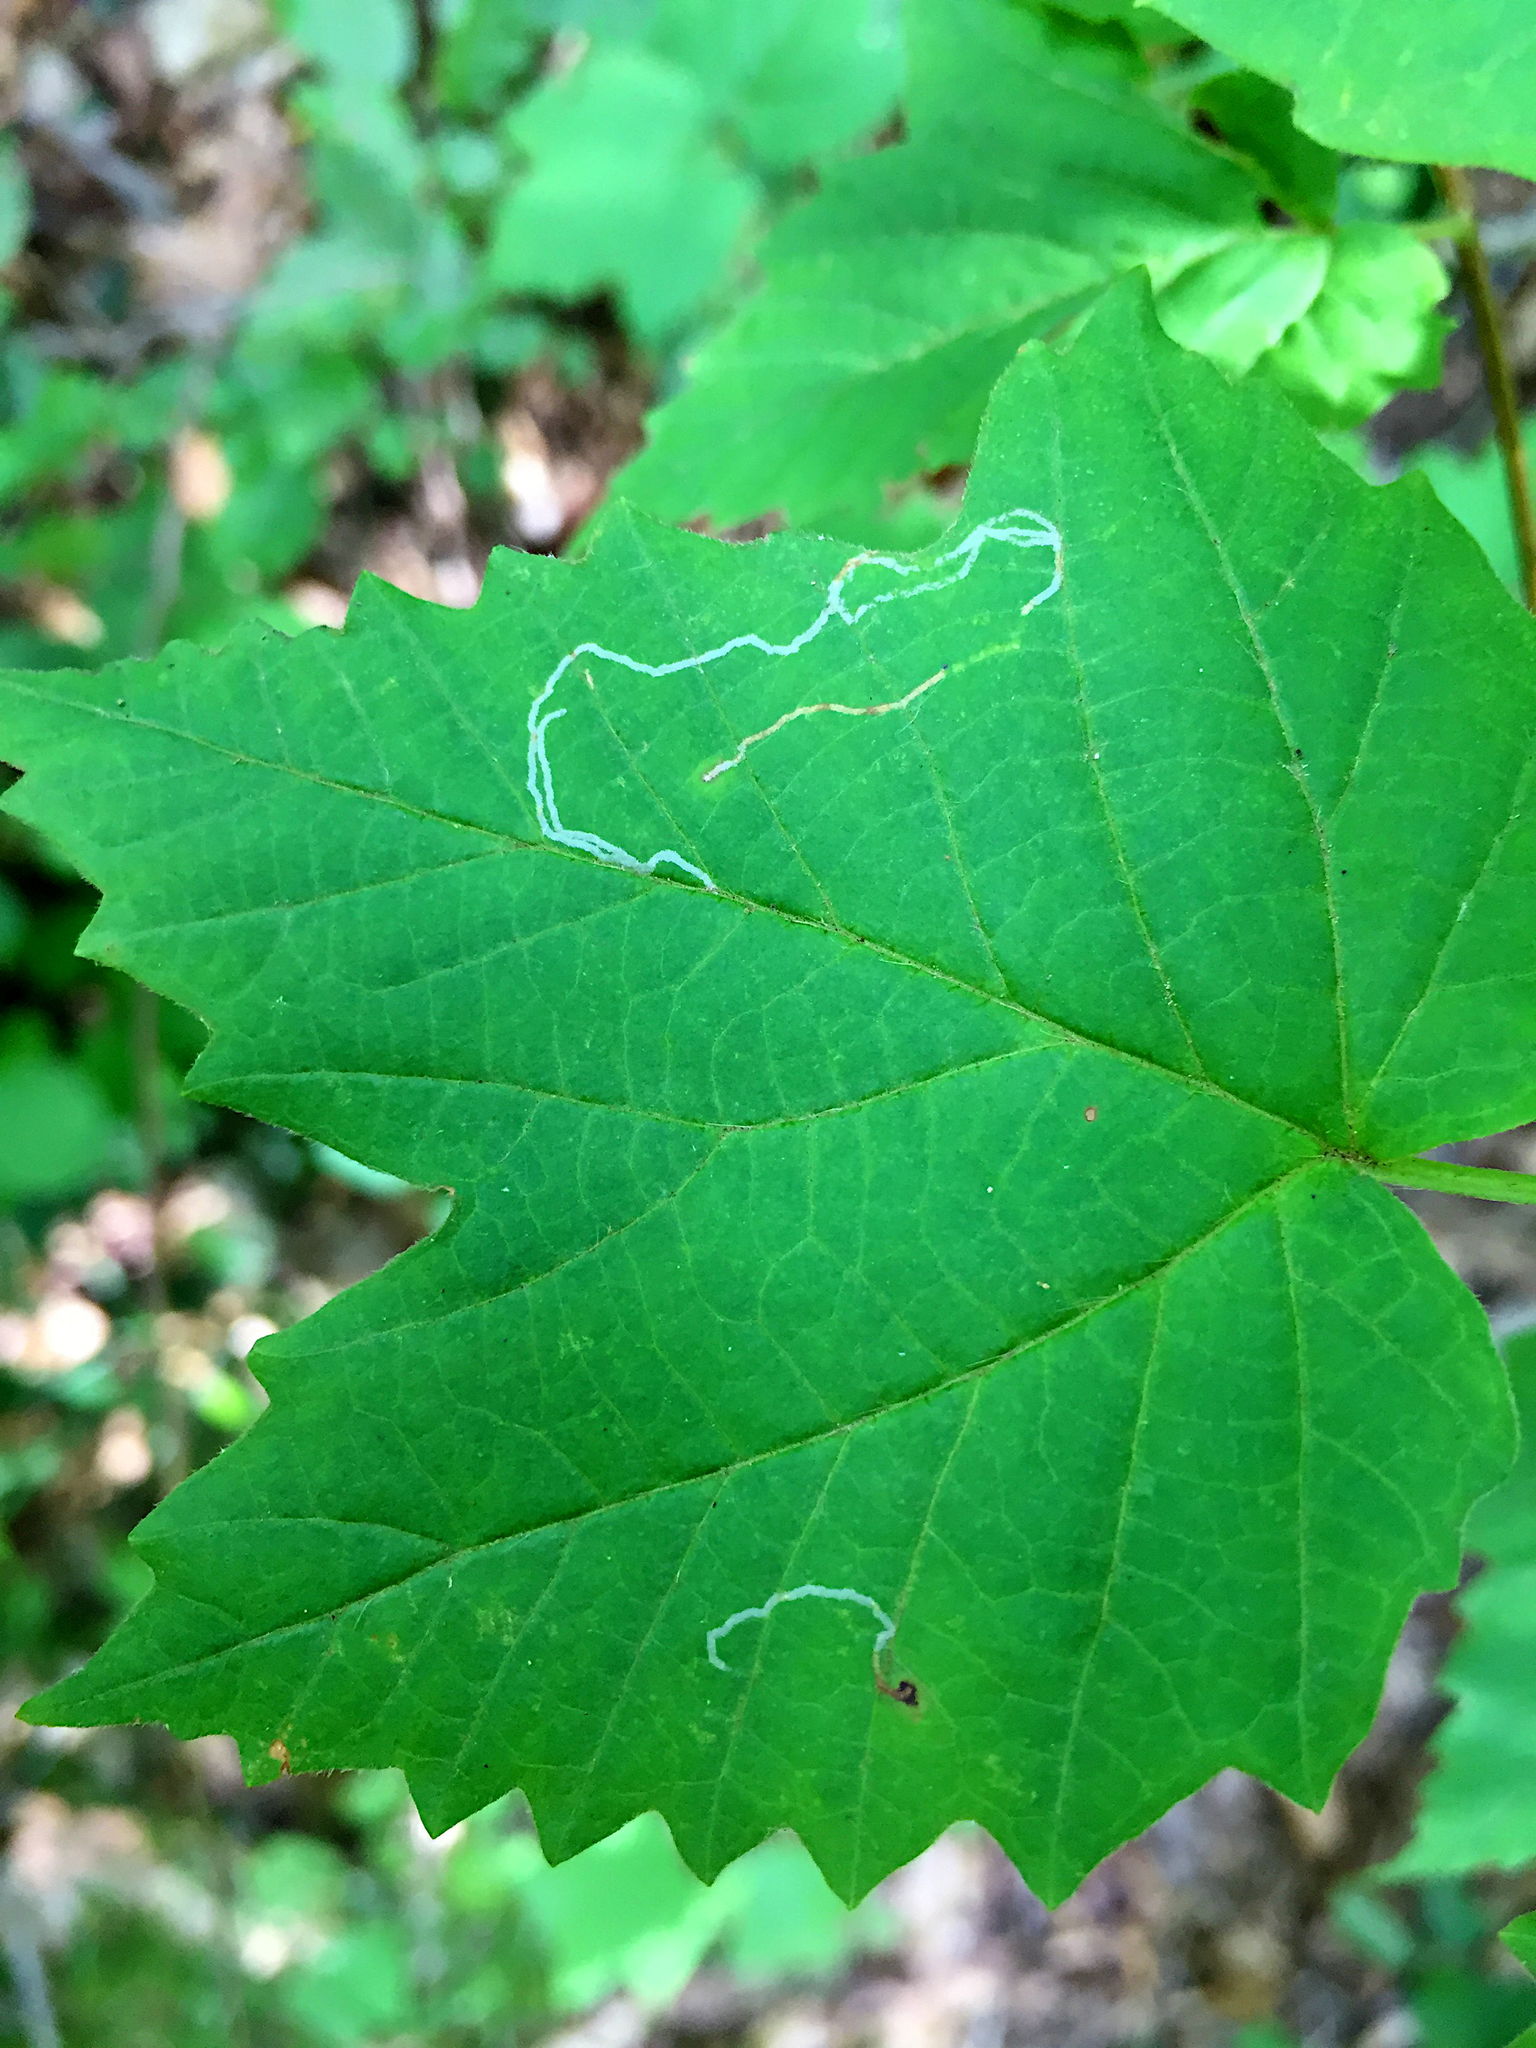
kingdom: Animalia
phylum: Arthropoda
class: Insecta
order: Lepidoptera
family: Gracillariidae
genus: Marmara
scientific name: Marmara viburnella
